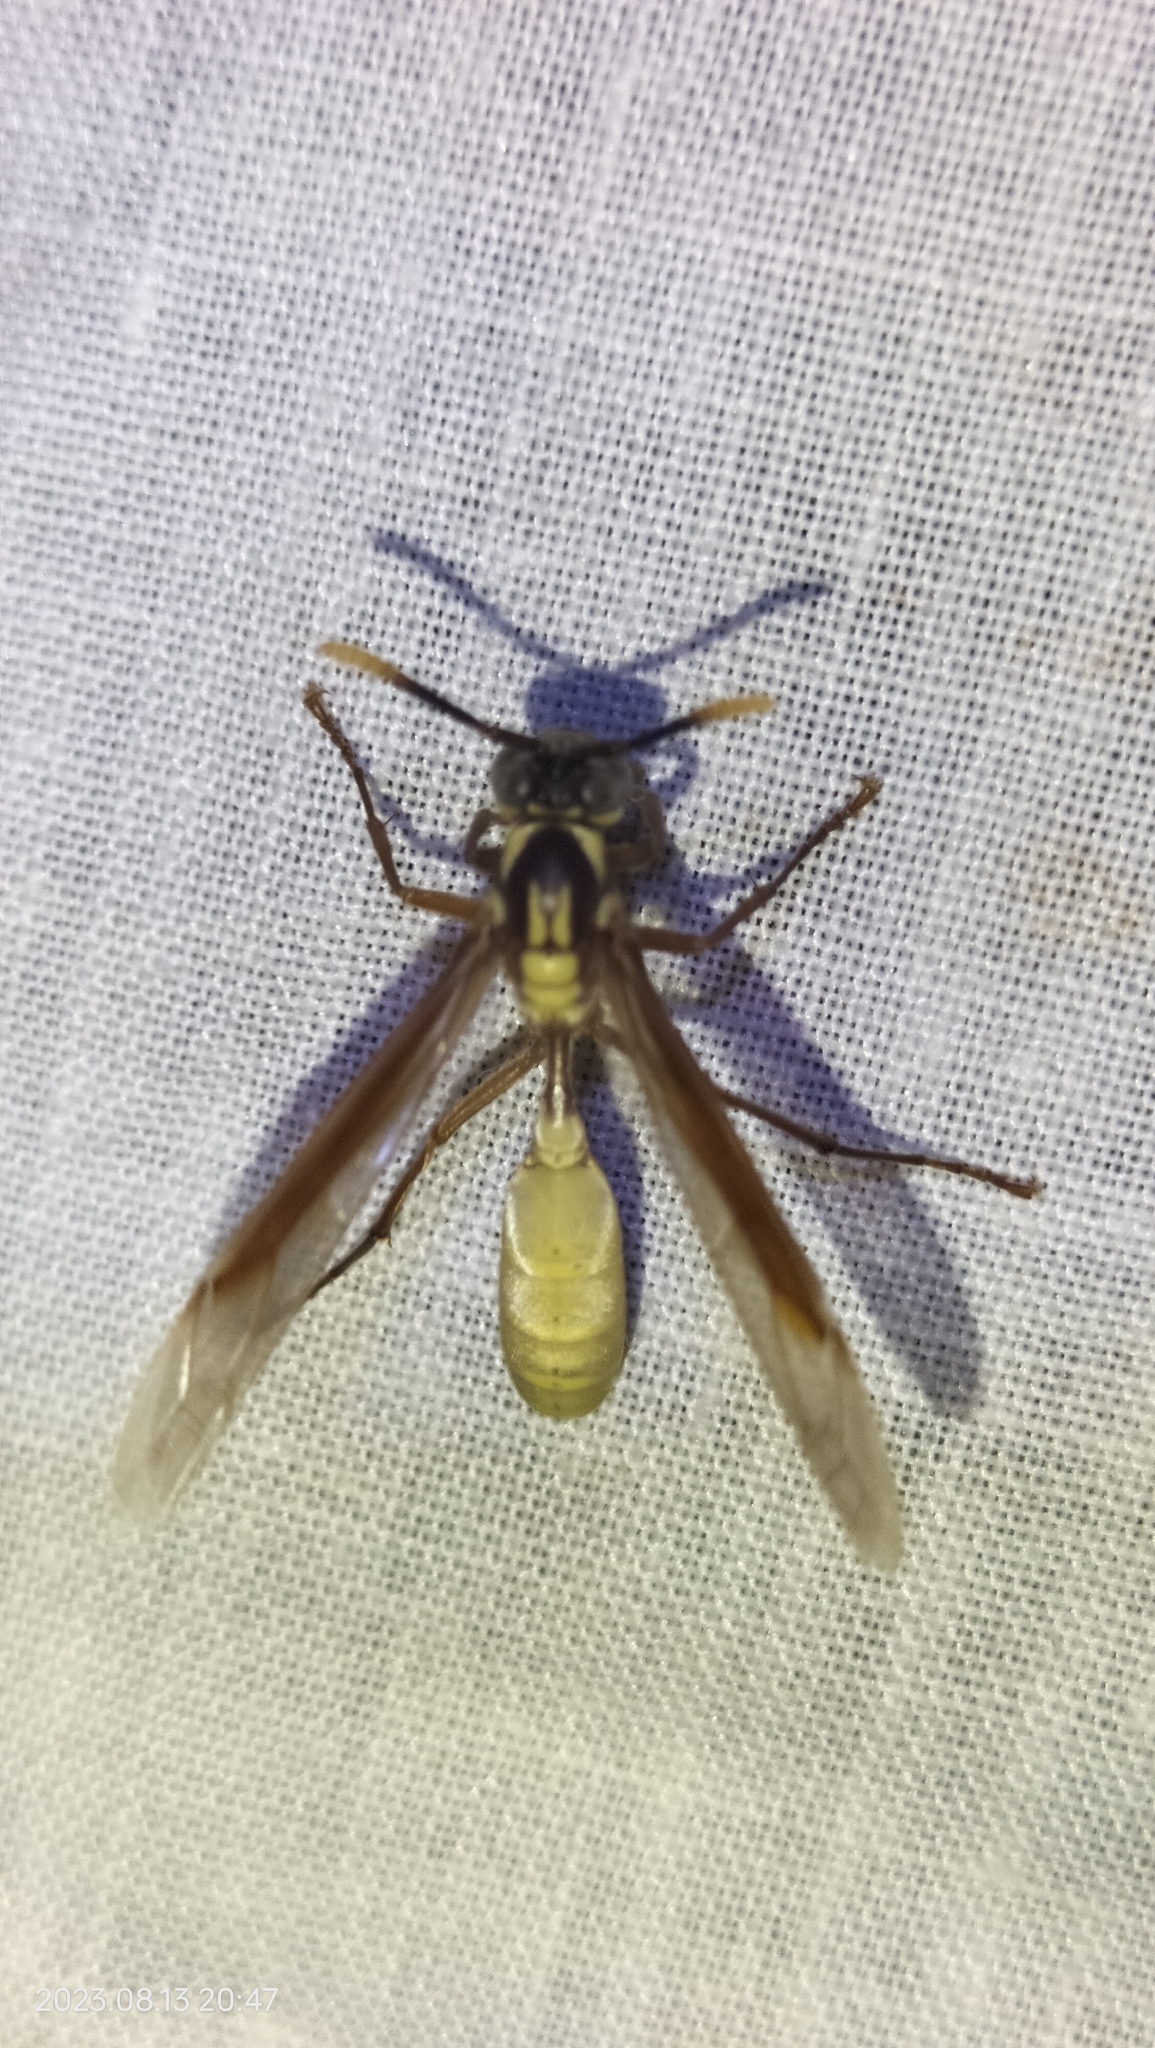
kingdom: Animalia
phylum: Arthropoda
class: Insecta
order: Hymenoptera
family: Vespidae
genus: Apoica
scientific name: Apoica pallens
